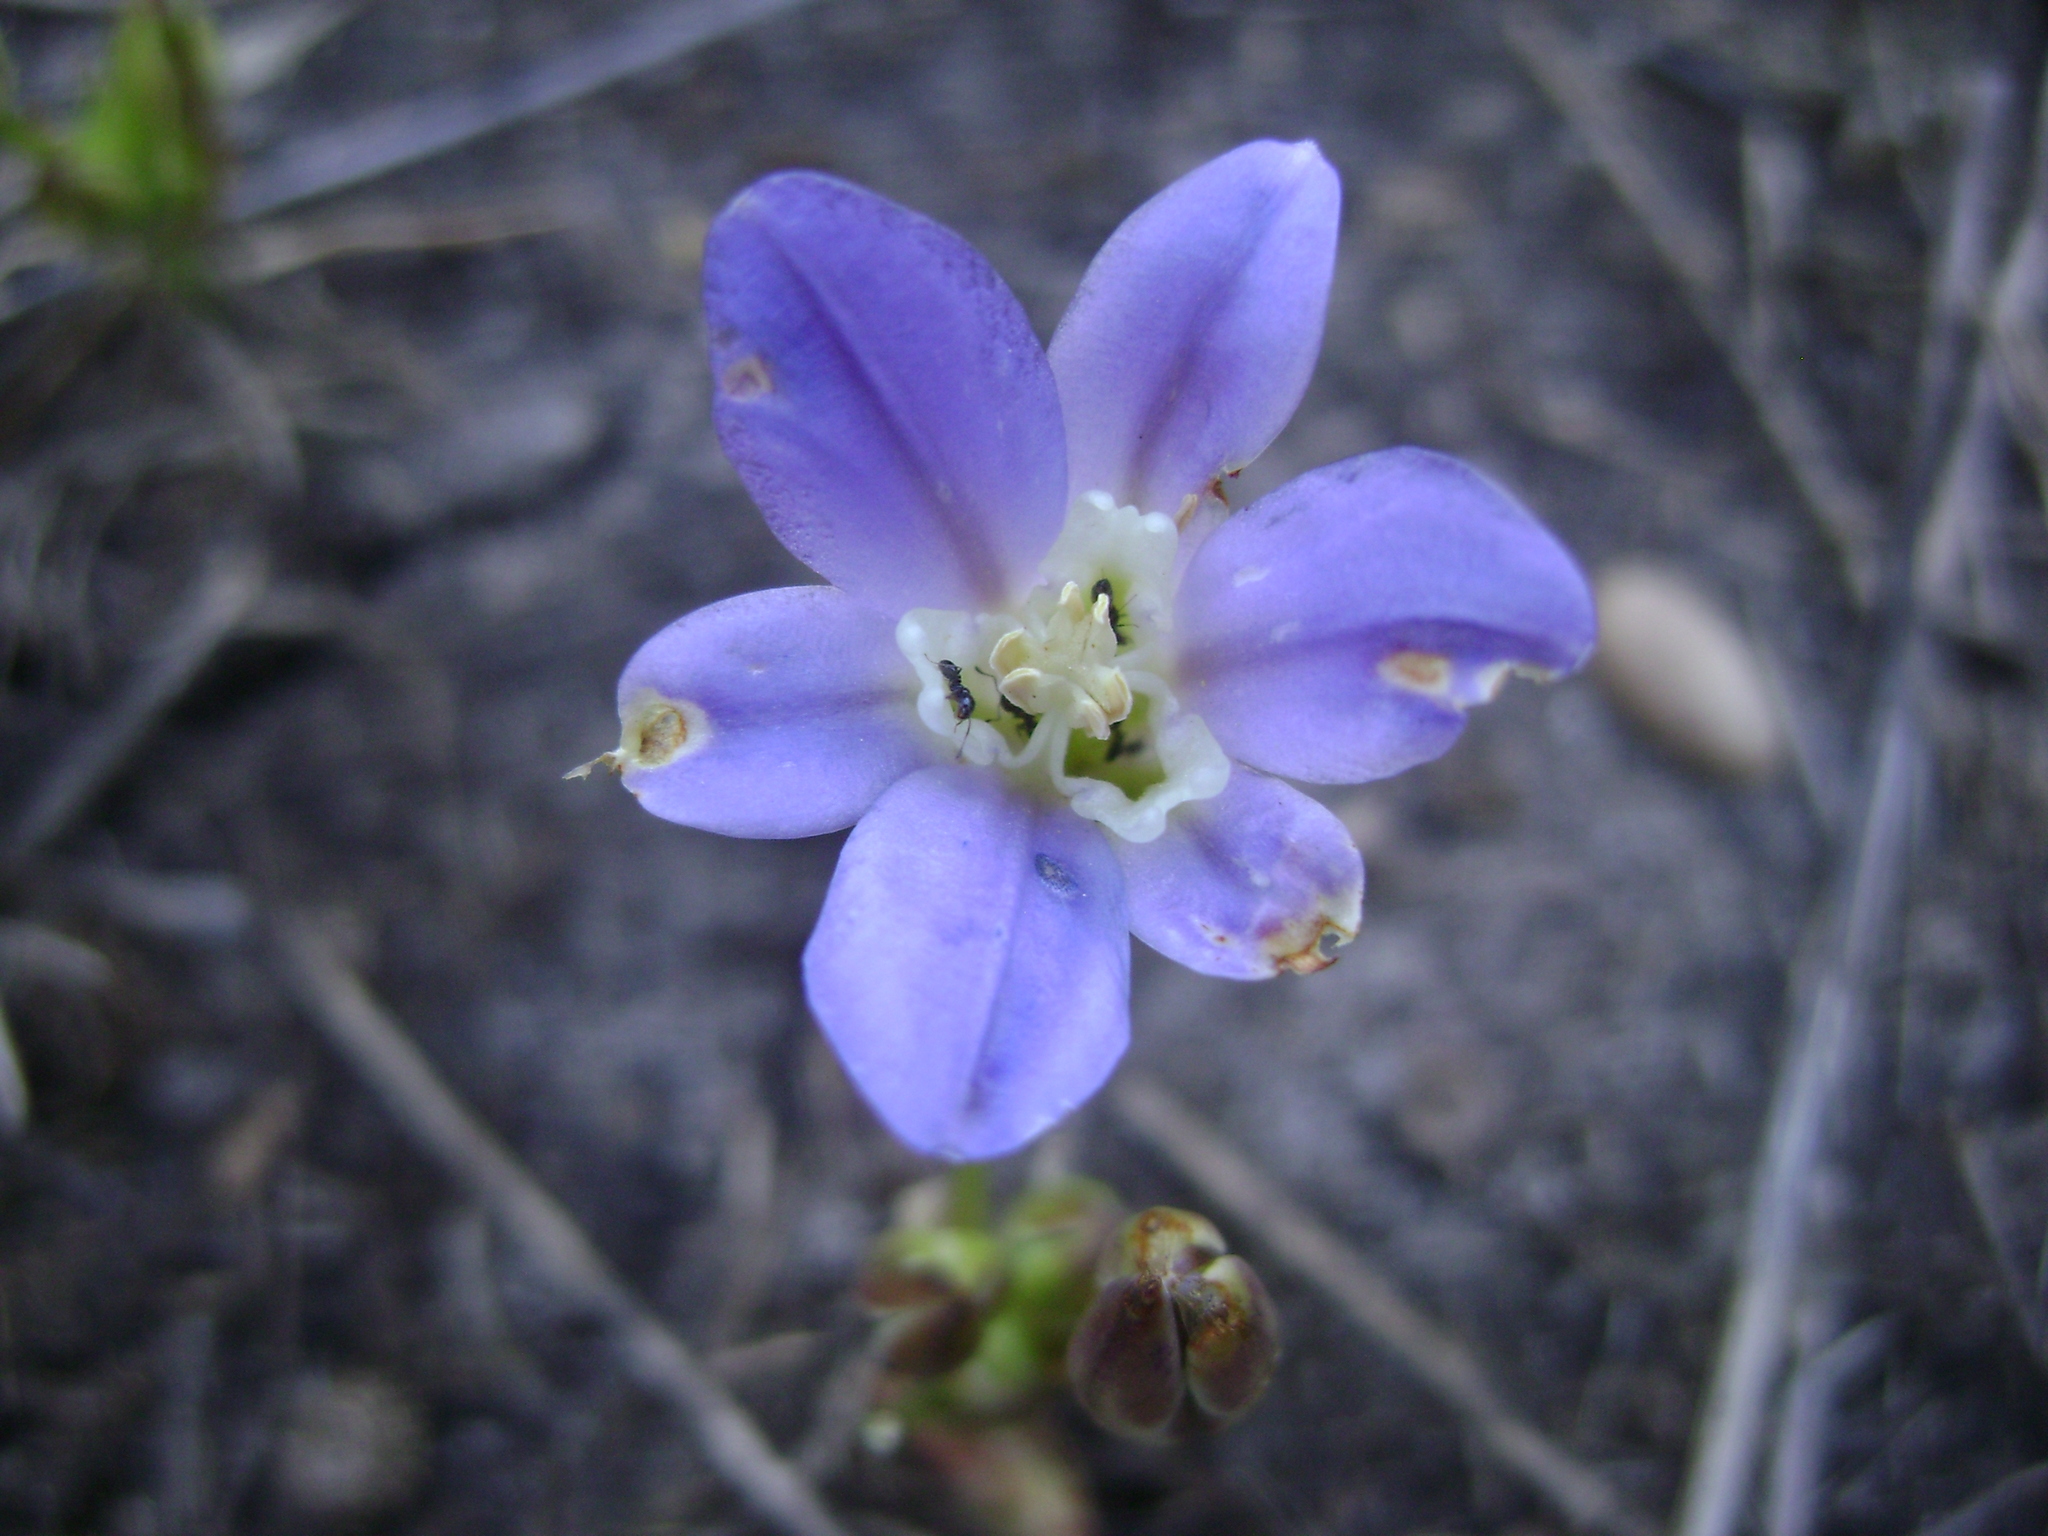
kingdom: Plantae
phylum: Tracheophyta
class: Liliopsida
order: Asparagales
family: Asparagaceae
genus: Brodiaea
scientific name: Brodiaea jolonensis
